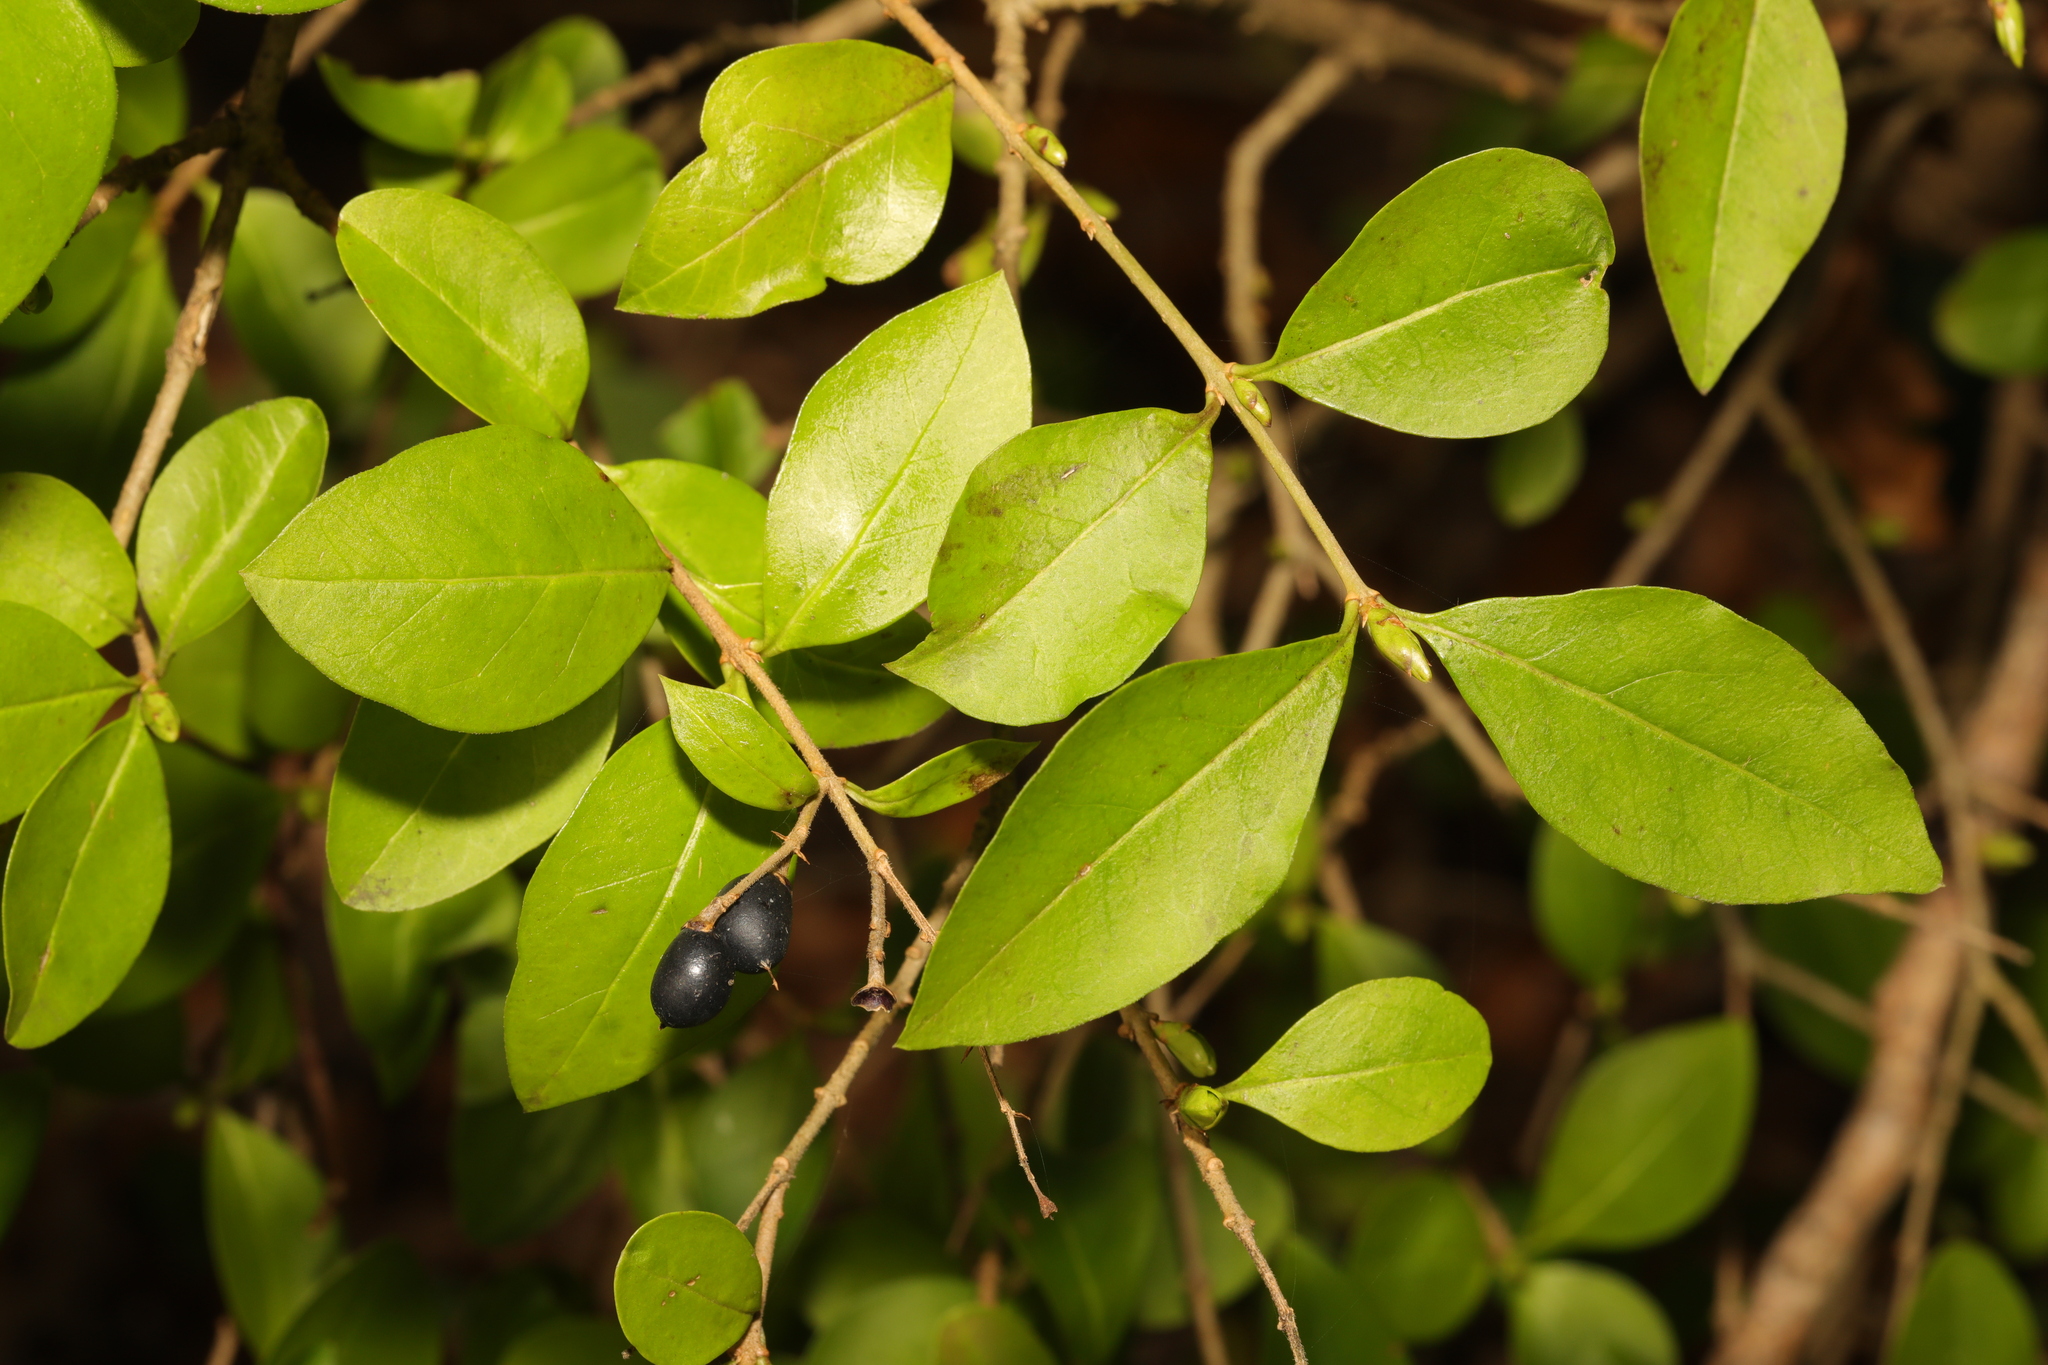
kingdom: Plantae
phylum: Tracheophyta
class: Magnoliopsida
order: Lamiales
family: Oleaceae
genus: Ligustrum
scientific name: Ligustrum ovalifolium
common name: California privet
